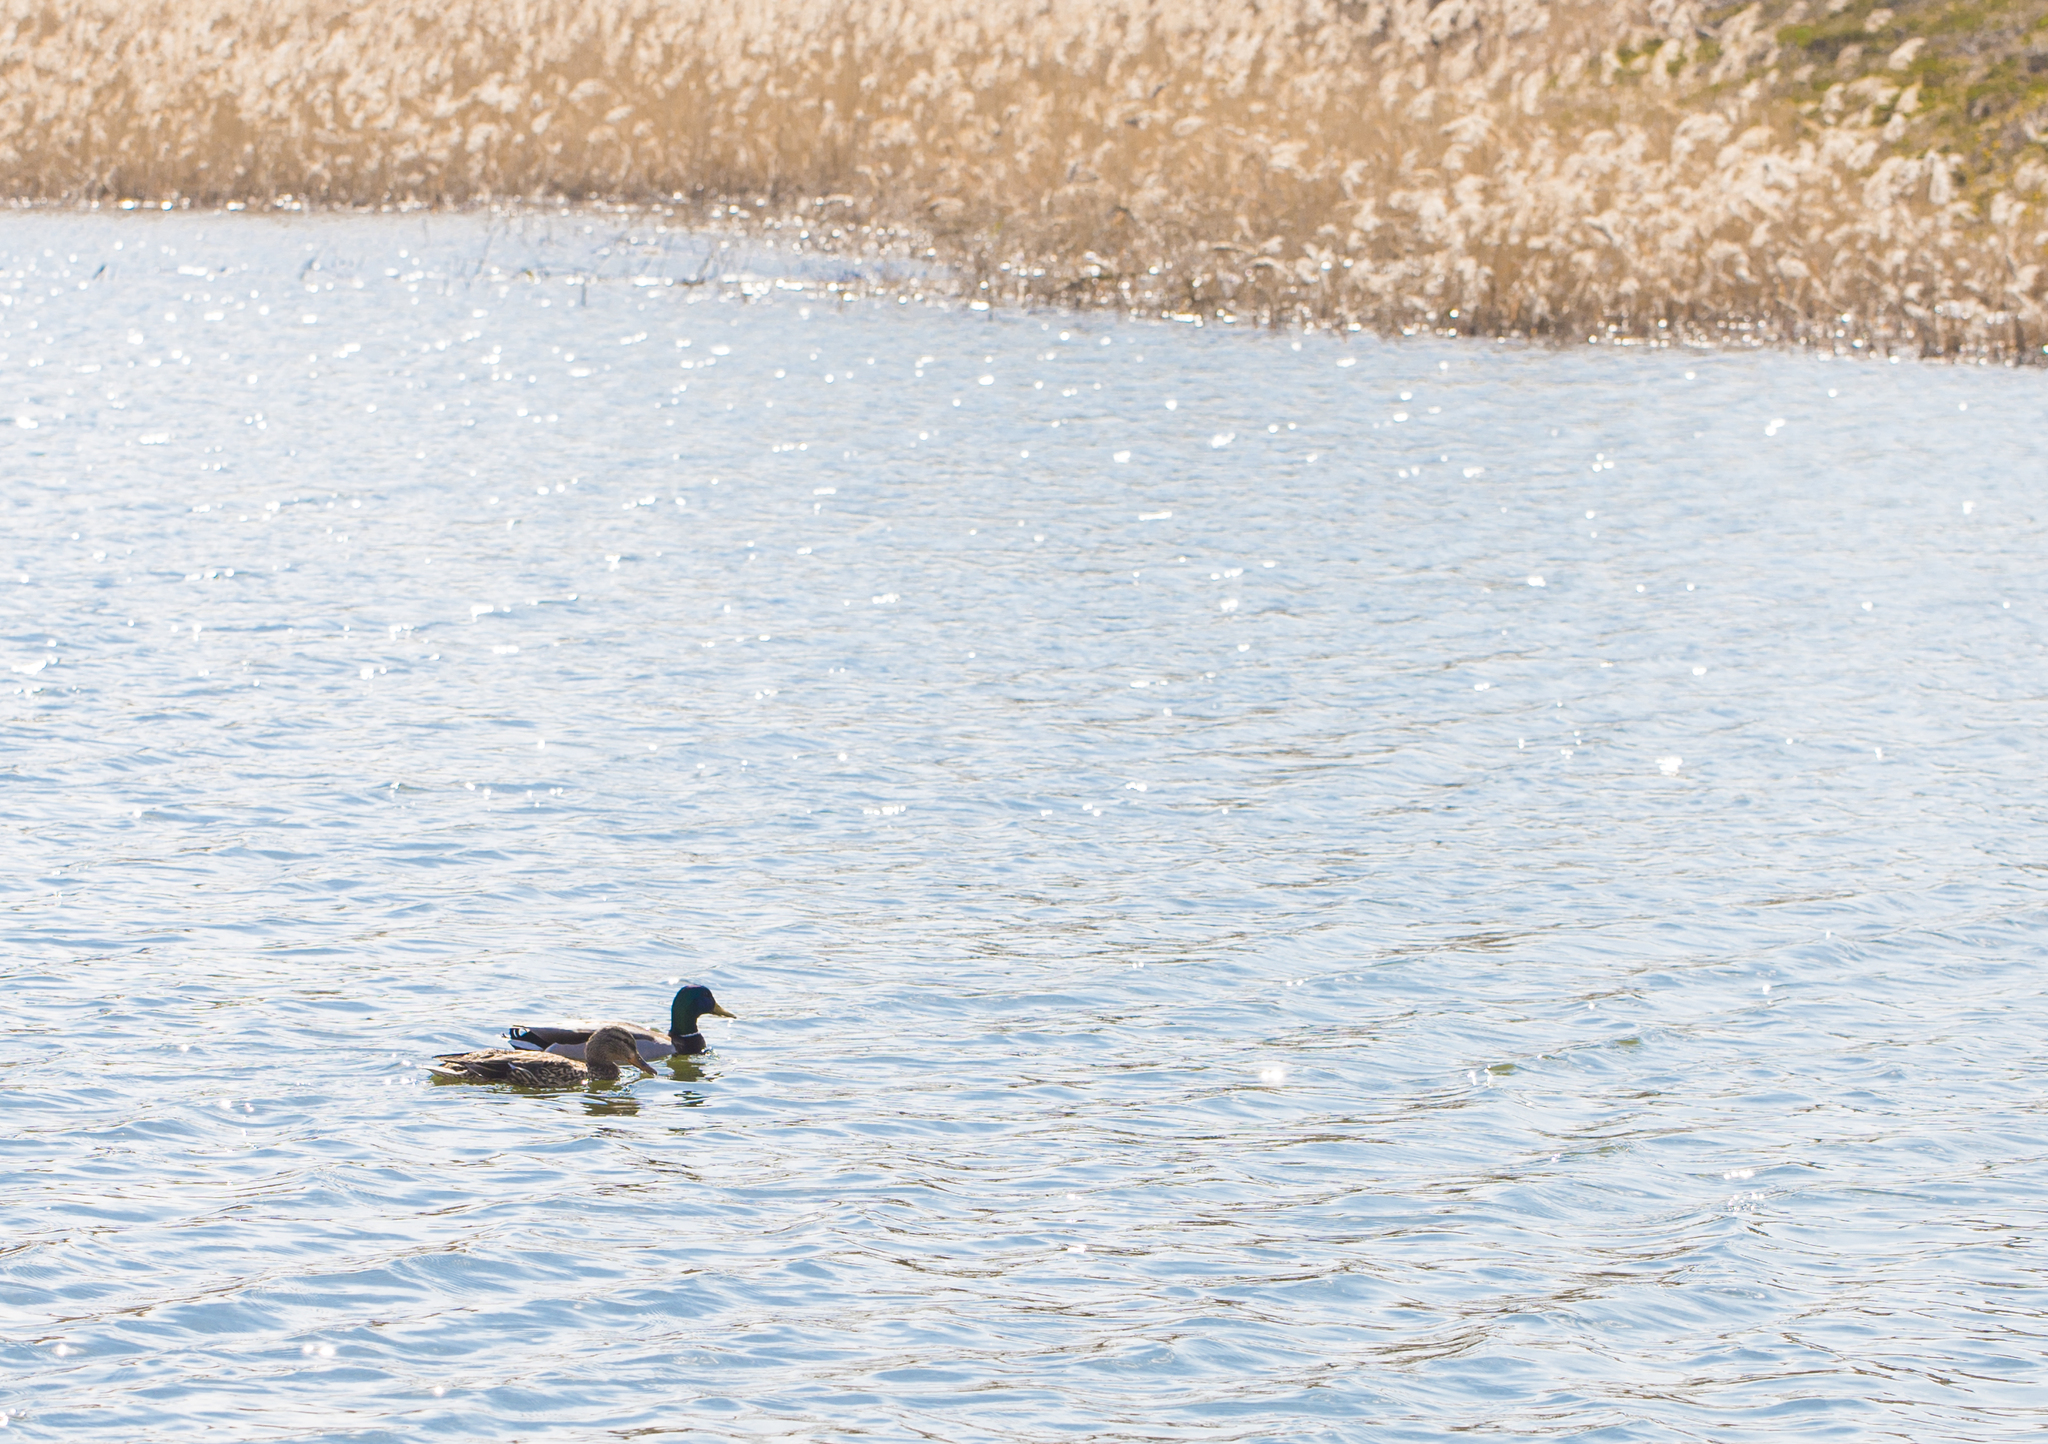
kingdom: Animalia
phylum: Chordata
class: Aves
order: Anseriformes
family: Anatidae
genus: Anas
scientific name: Anas platyrhynchos
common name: Mallard
